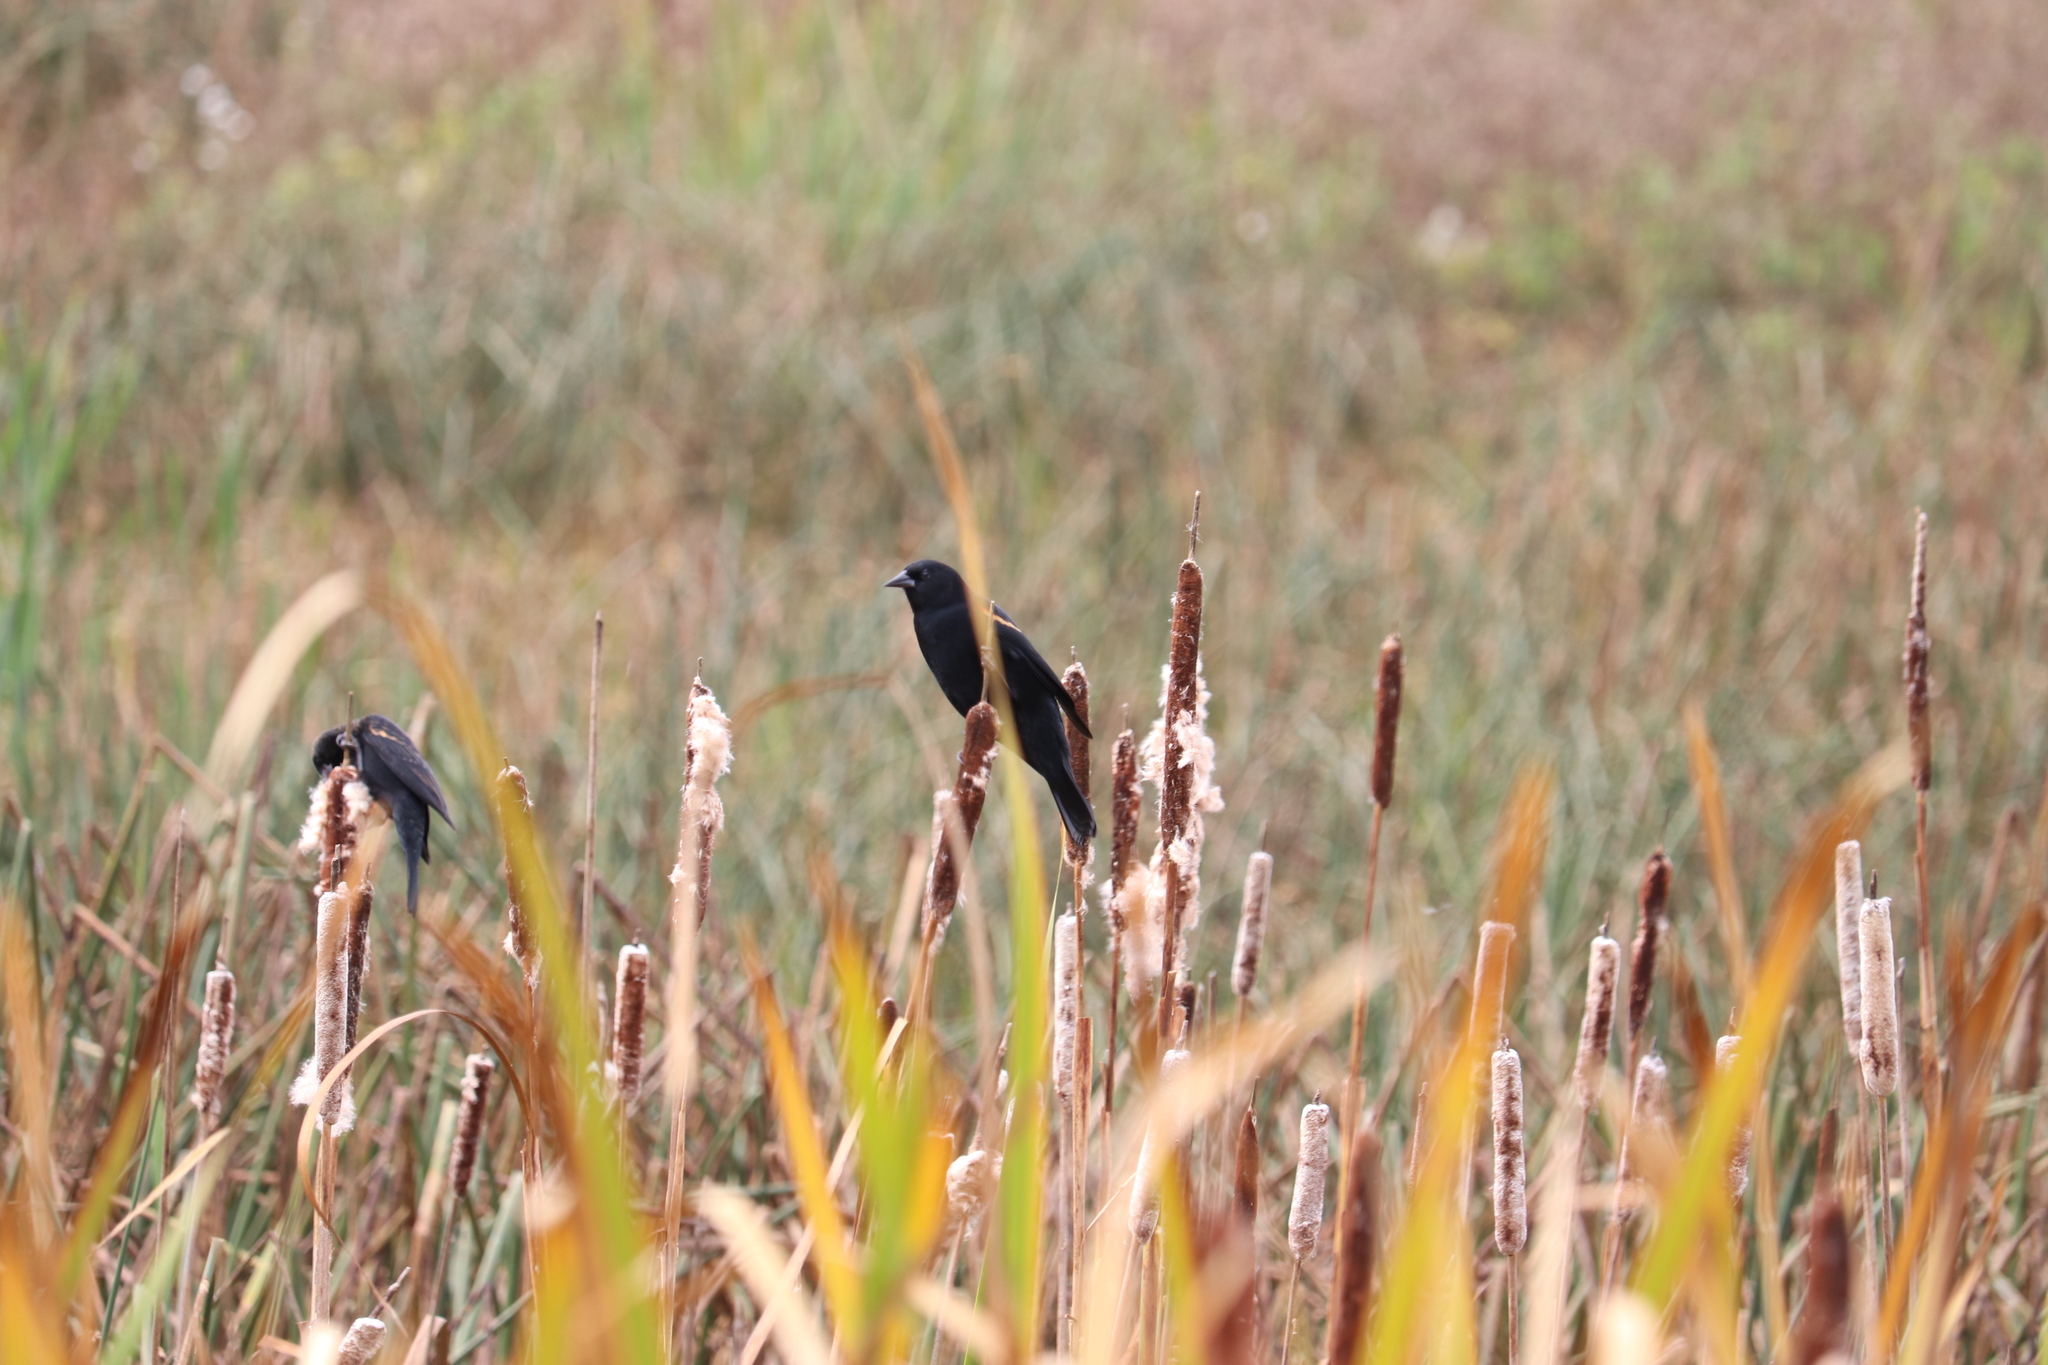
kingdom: Animalia
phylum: Chordata
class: Aves
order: Passeriformes
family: Icteridae
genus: Agelaius
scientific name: Agelaius phoeniceus
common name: Red-winged blackbird
